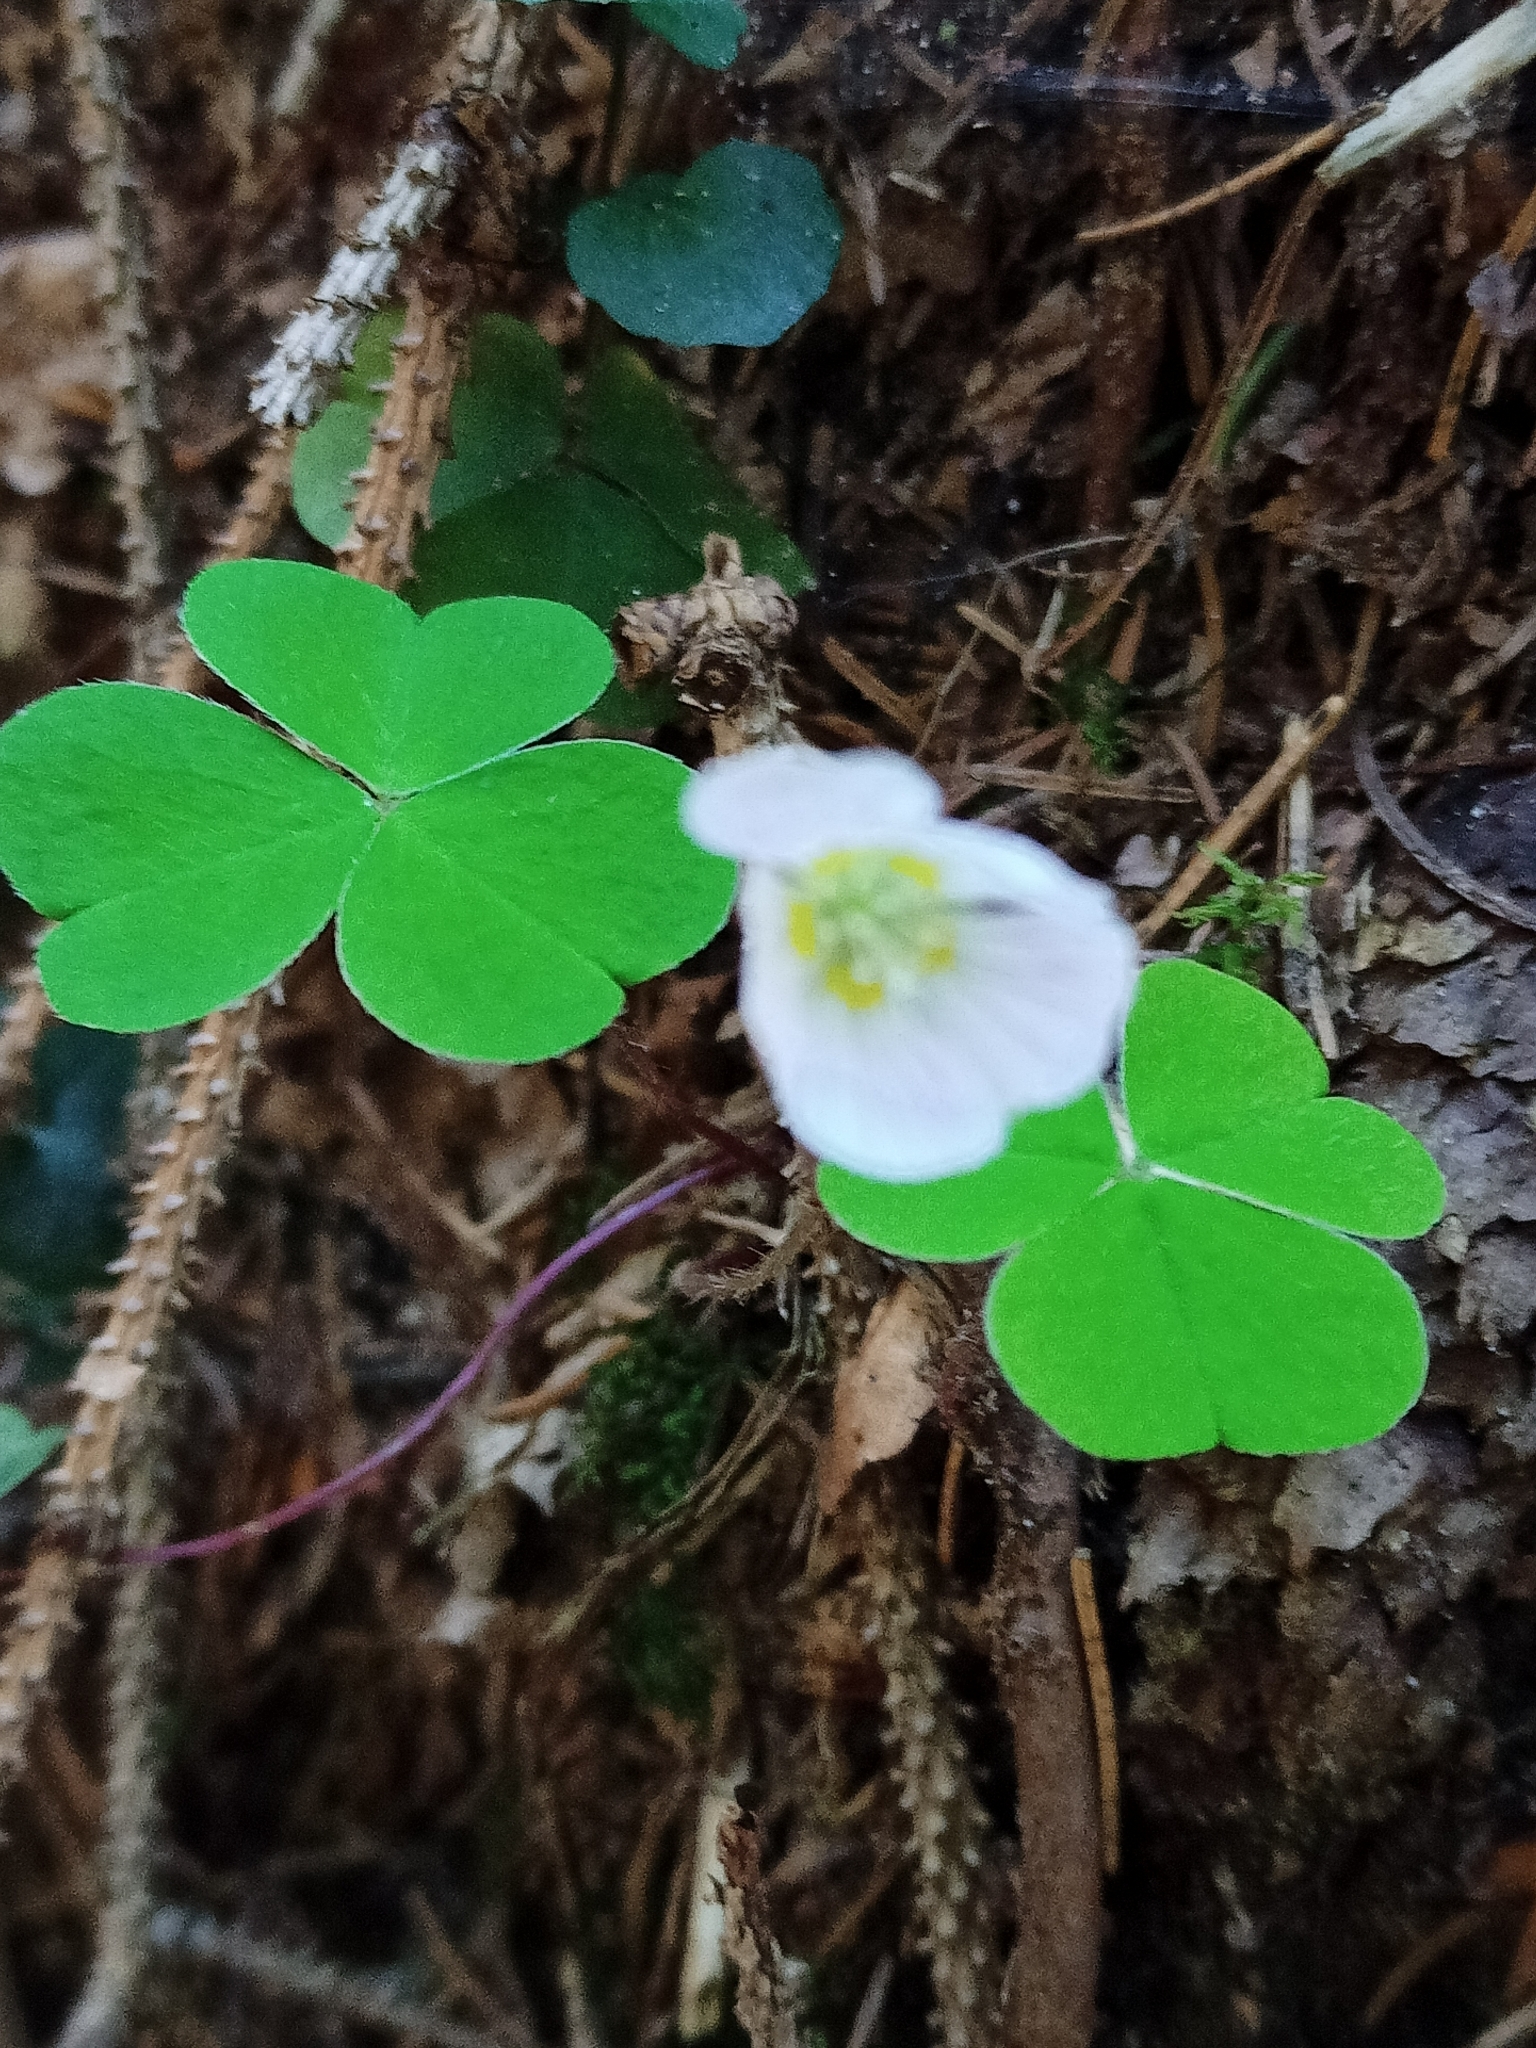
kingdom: Plantae
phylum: Tracheophyta
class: Magnoliopsida
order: Oxalidales
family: Oxalidaceae
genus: Oxalis
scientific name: Oxalis acetosella
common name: Wood-sorrel
